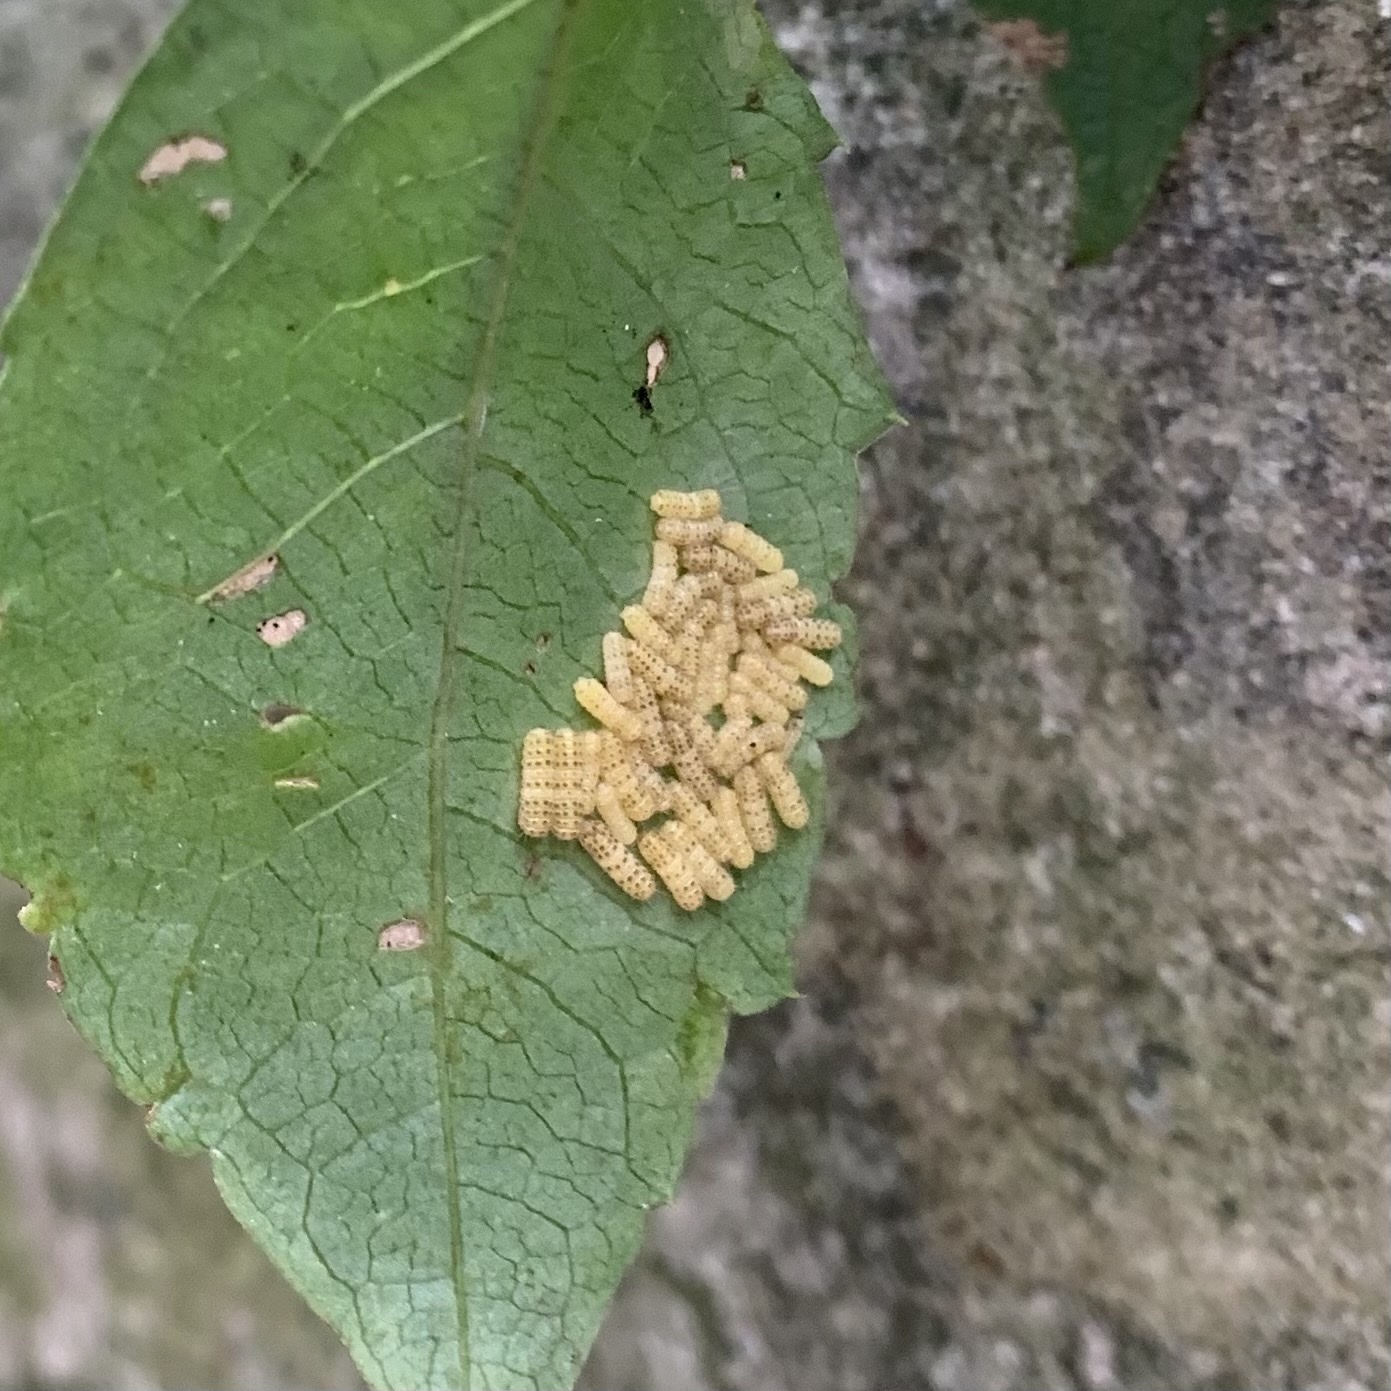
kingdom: Animalia
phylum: Arthropoda
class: Insecta
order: Lepidoptera
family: Zygaenidae
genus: Harrisina
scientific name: Harrisina americana
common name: Grapeleaf skeletonizer moth
